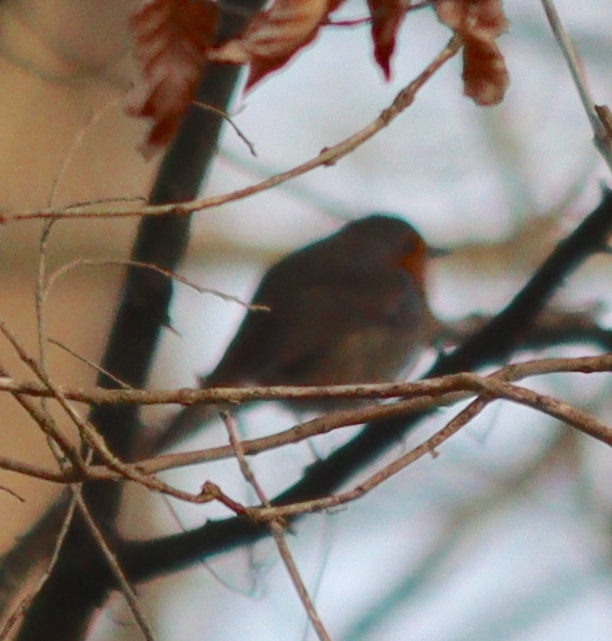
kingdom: Animalia
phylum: Chordata
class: Aves
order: Passeriformes
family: Muscicapidae
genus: Erithacus
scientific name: Erithacus rubecula
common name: European robin
